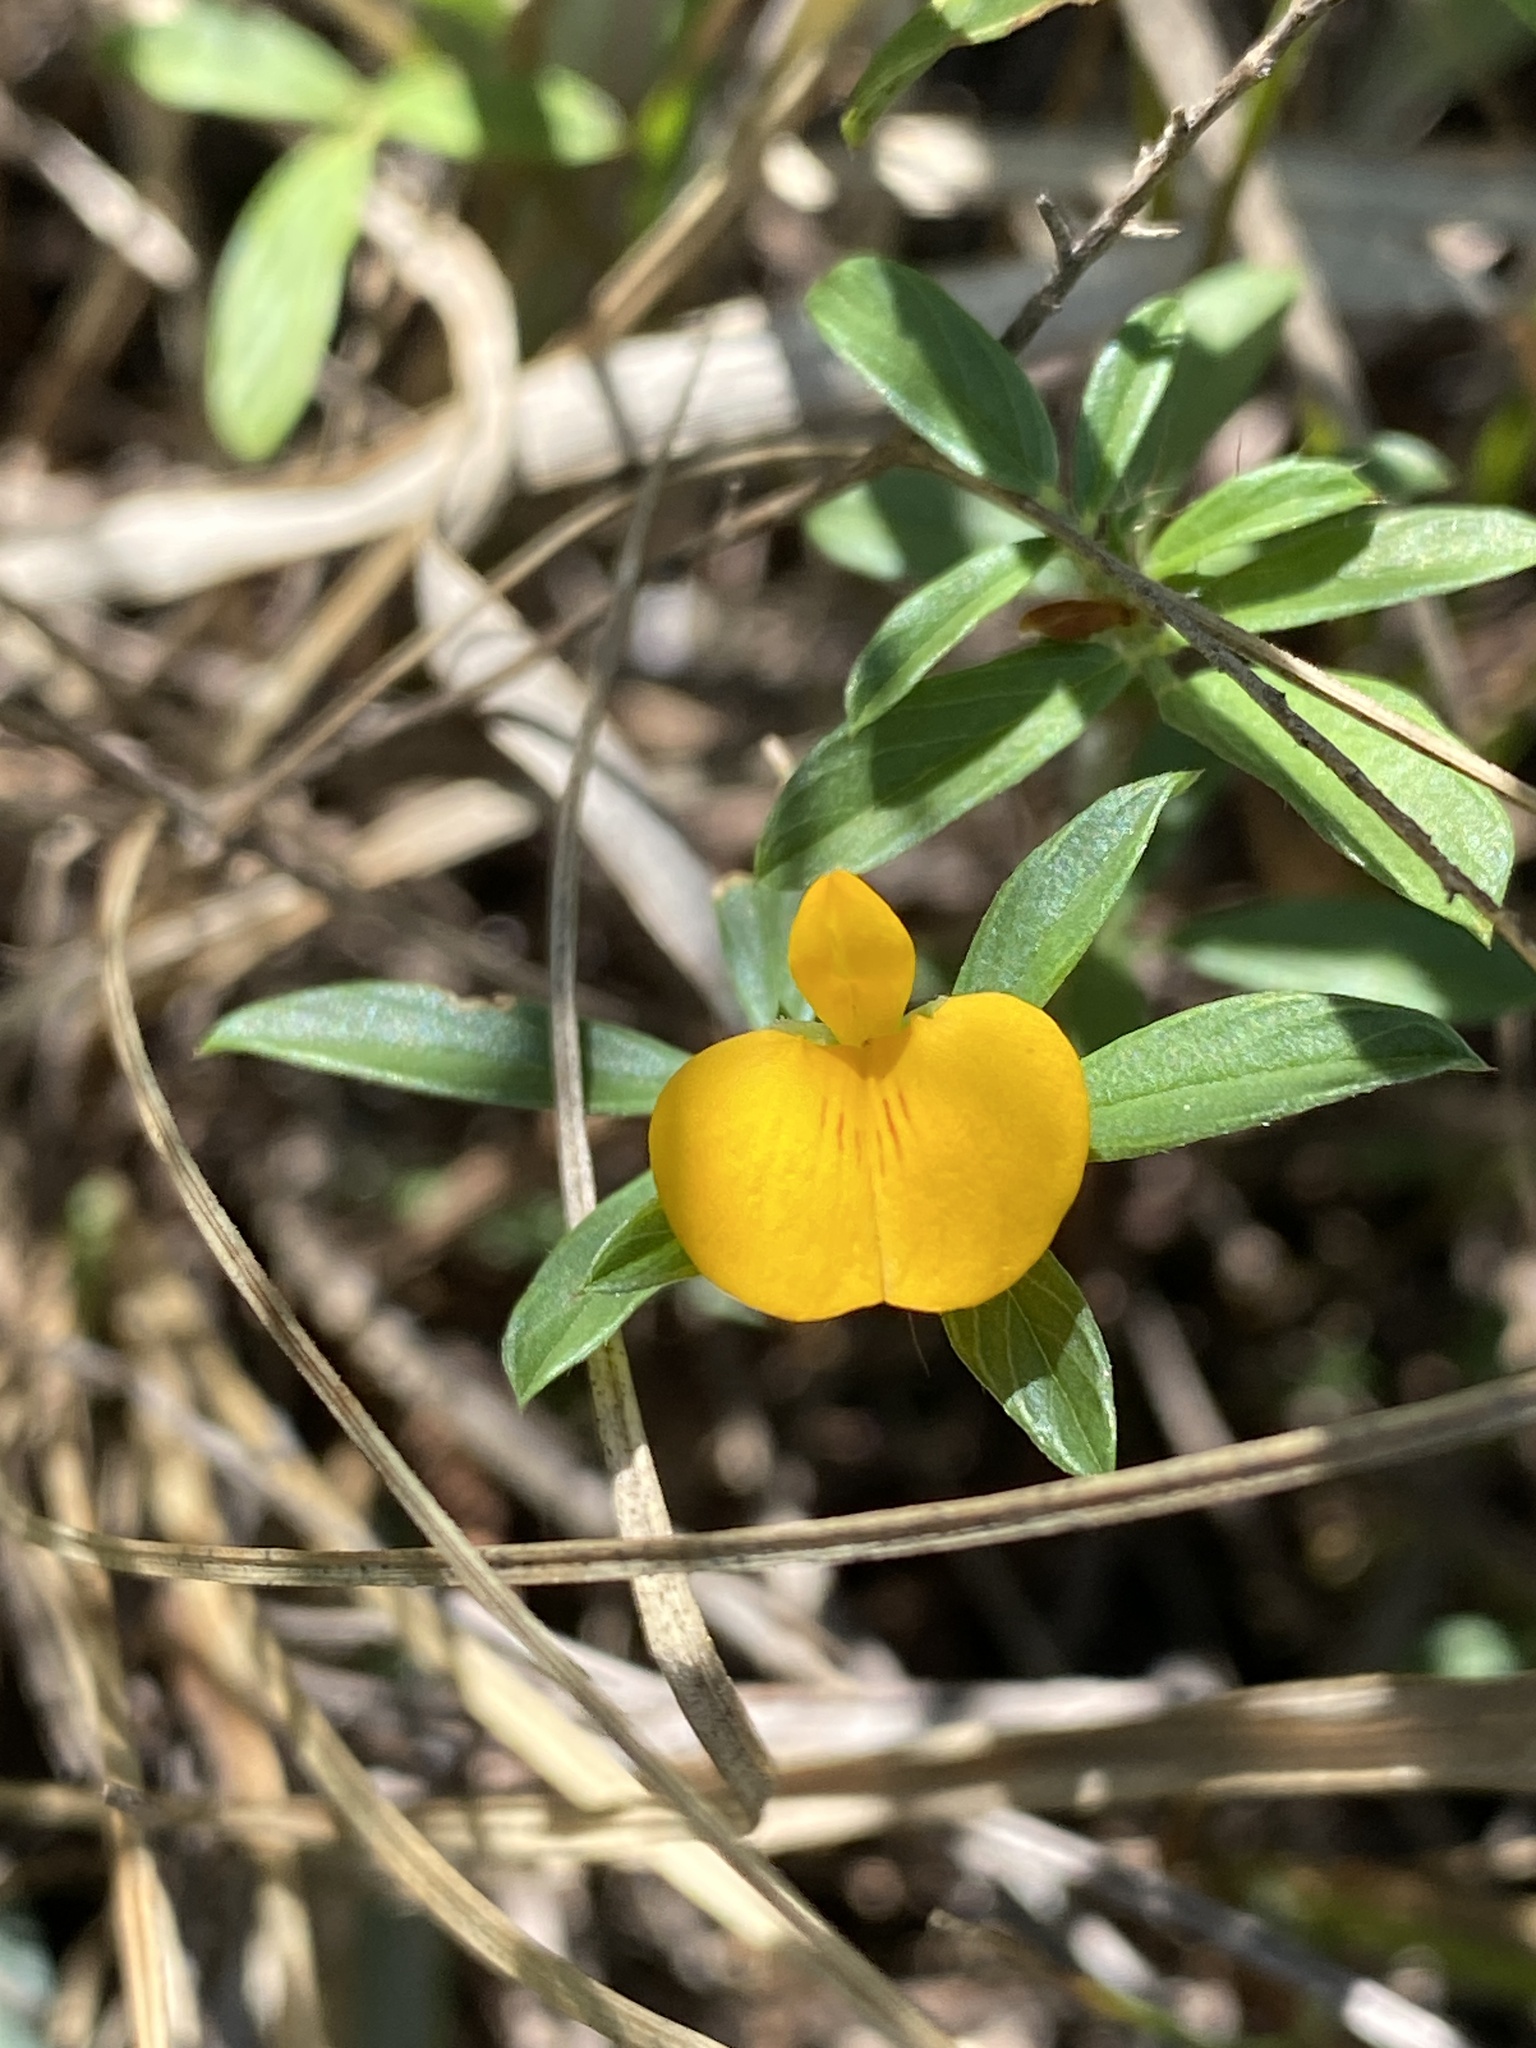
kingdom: Plantae
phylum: Tracheophyta
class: Magnoliopsida
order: Fabales
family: Fabaceae
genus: Stylosanthes
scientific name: Stylosanthes biflora
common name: Two-flower pencil-flower
